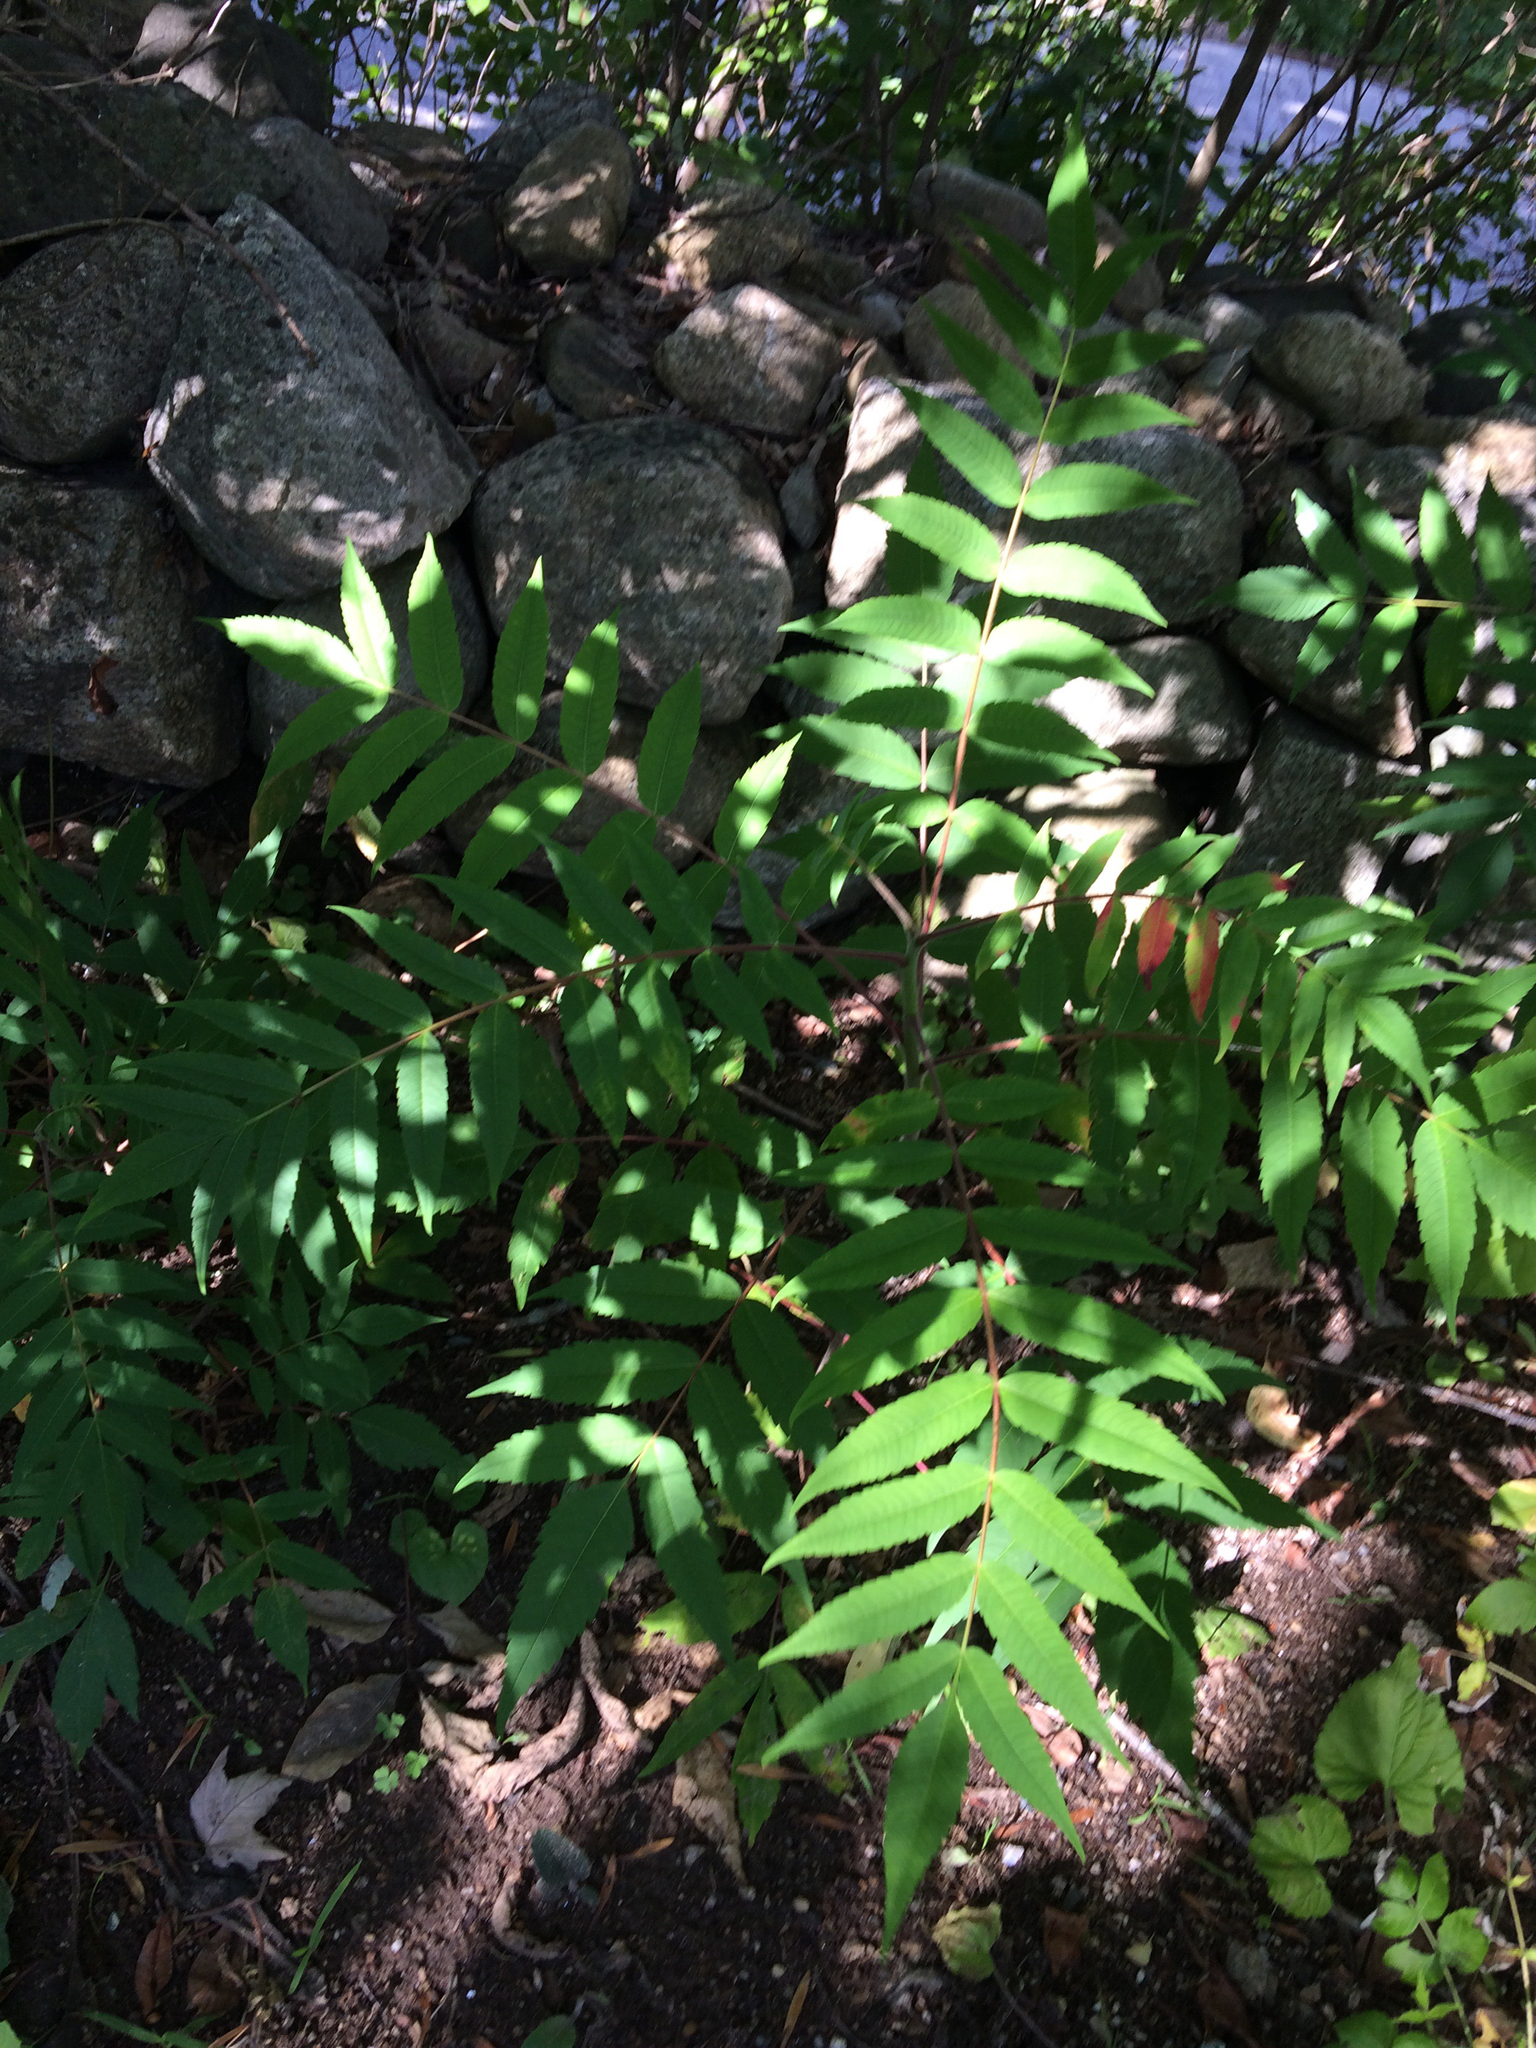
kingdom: Plantae
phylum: Tracheophyta
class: Magnoliopsida
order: Sapindales
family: Anacardiaceae
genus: Rhus
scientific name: Rhus typhina
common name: Staghorn sumac
